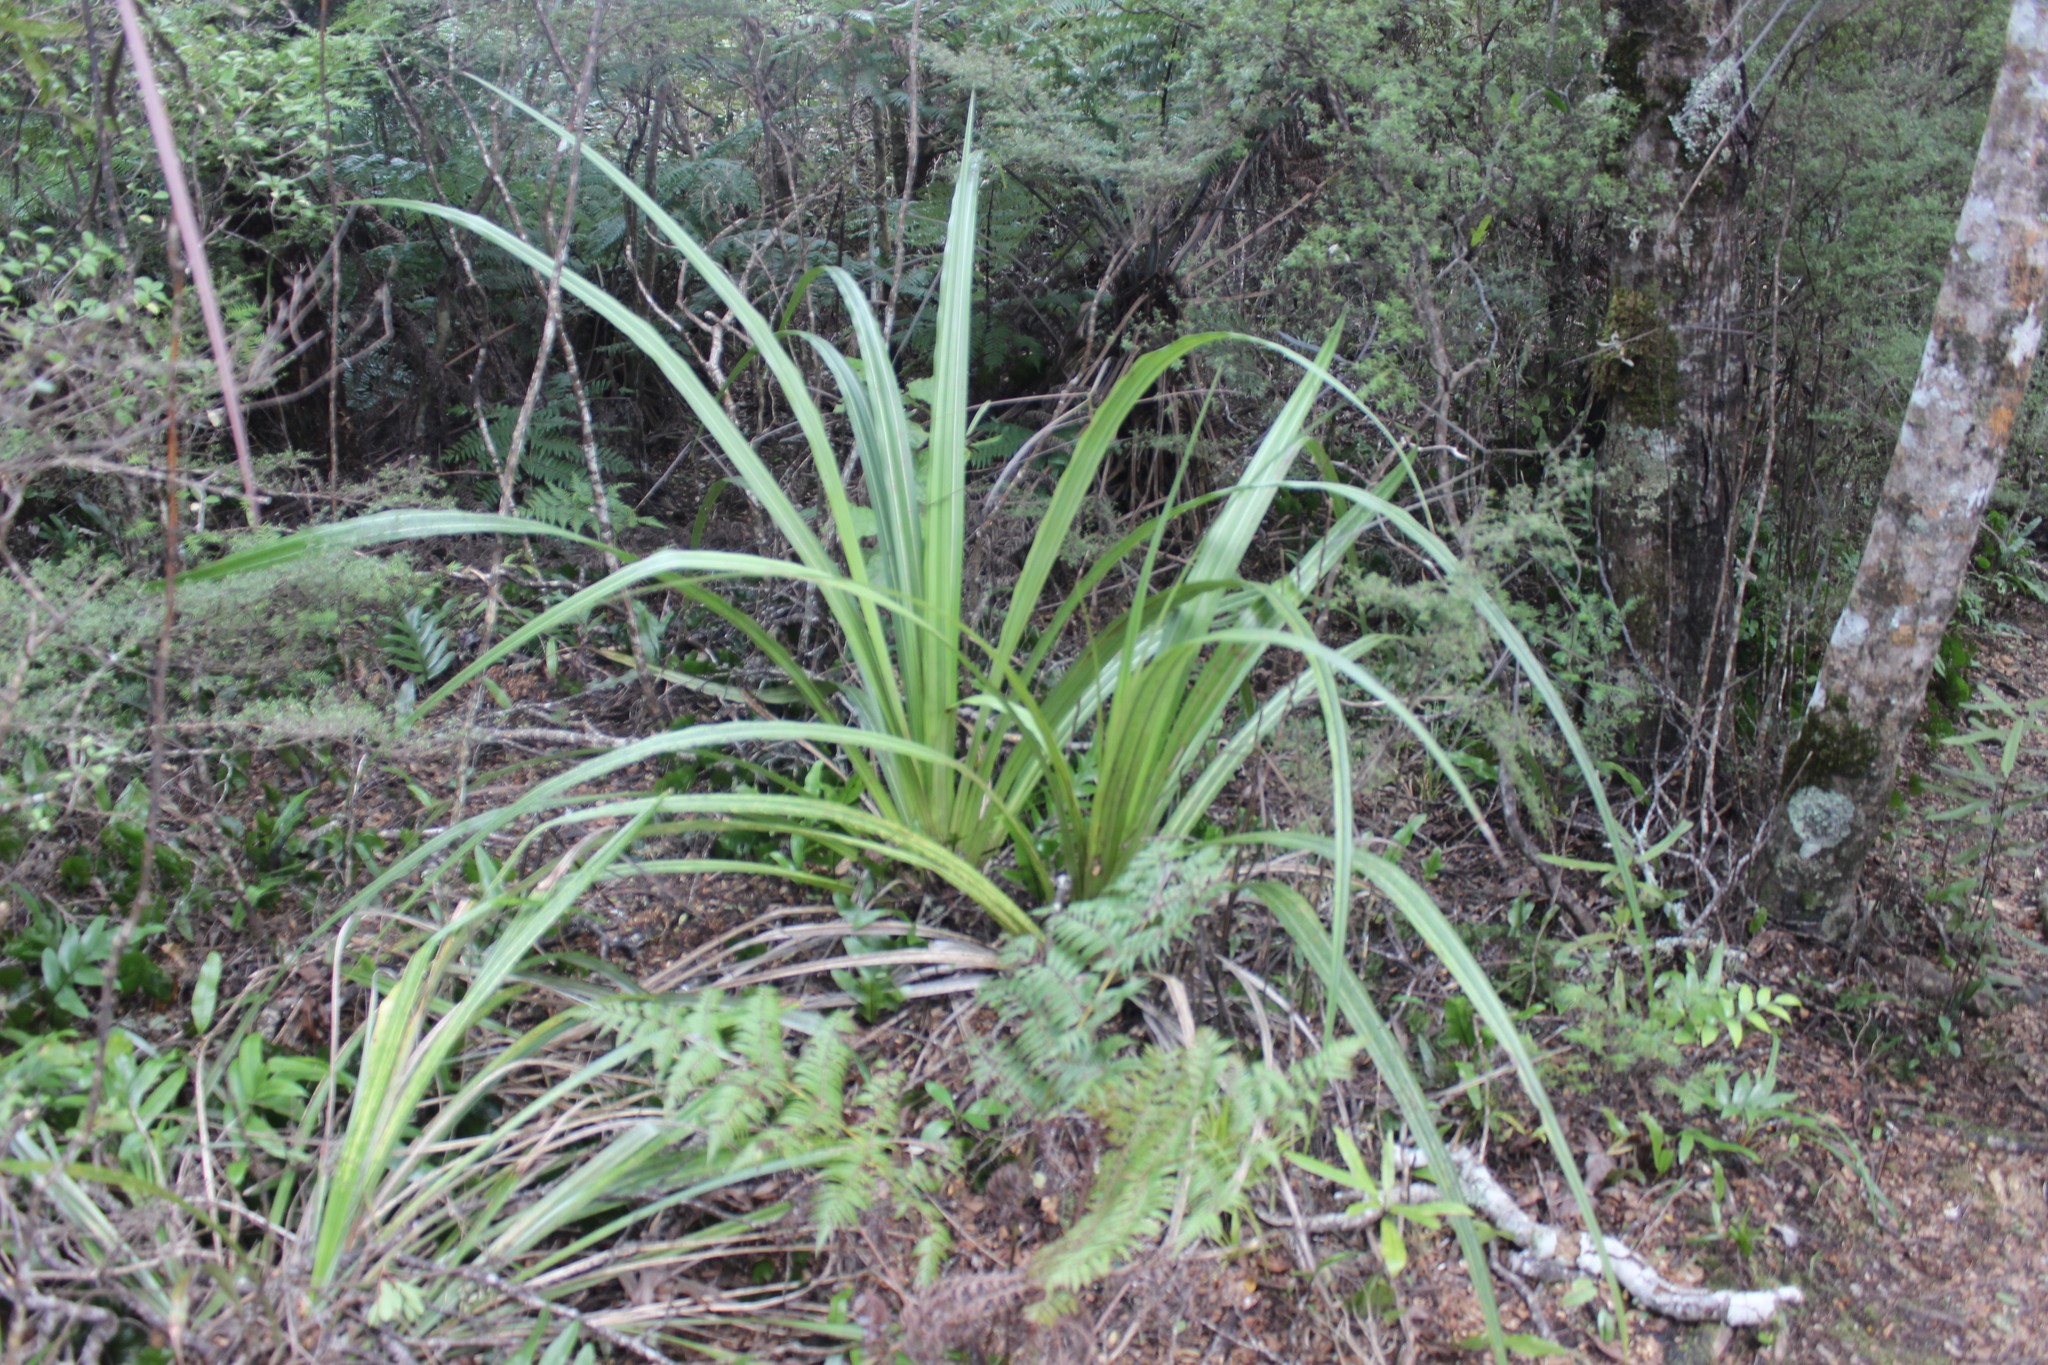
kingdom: Plantae
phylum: Tracheophyta
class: Liliopsida
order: Asparagales
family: Asteliaceae
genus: Astelia
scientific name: Astelia fragrans
